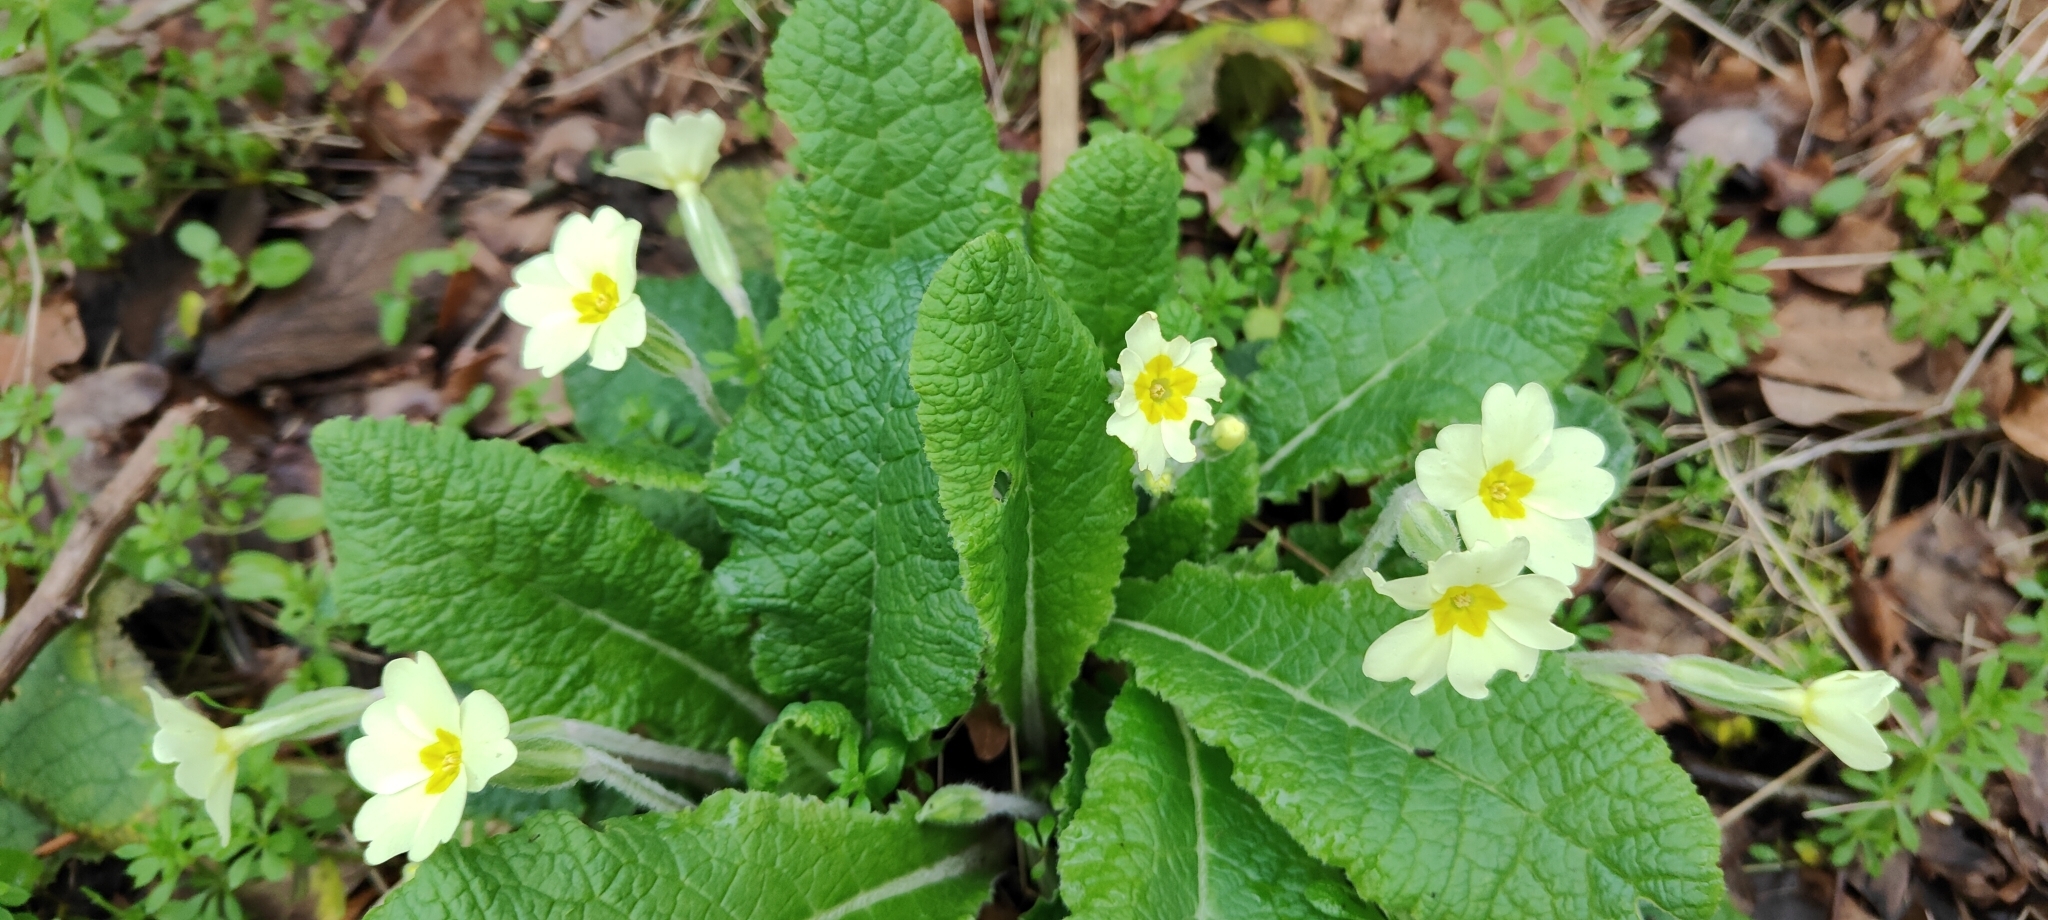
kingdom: Plantae
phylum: Tracheophyta
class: Magnoliopsida
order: Ericales
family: Primulaceae
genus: Primula
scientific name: Primula vulgaris
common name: Primrose
